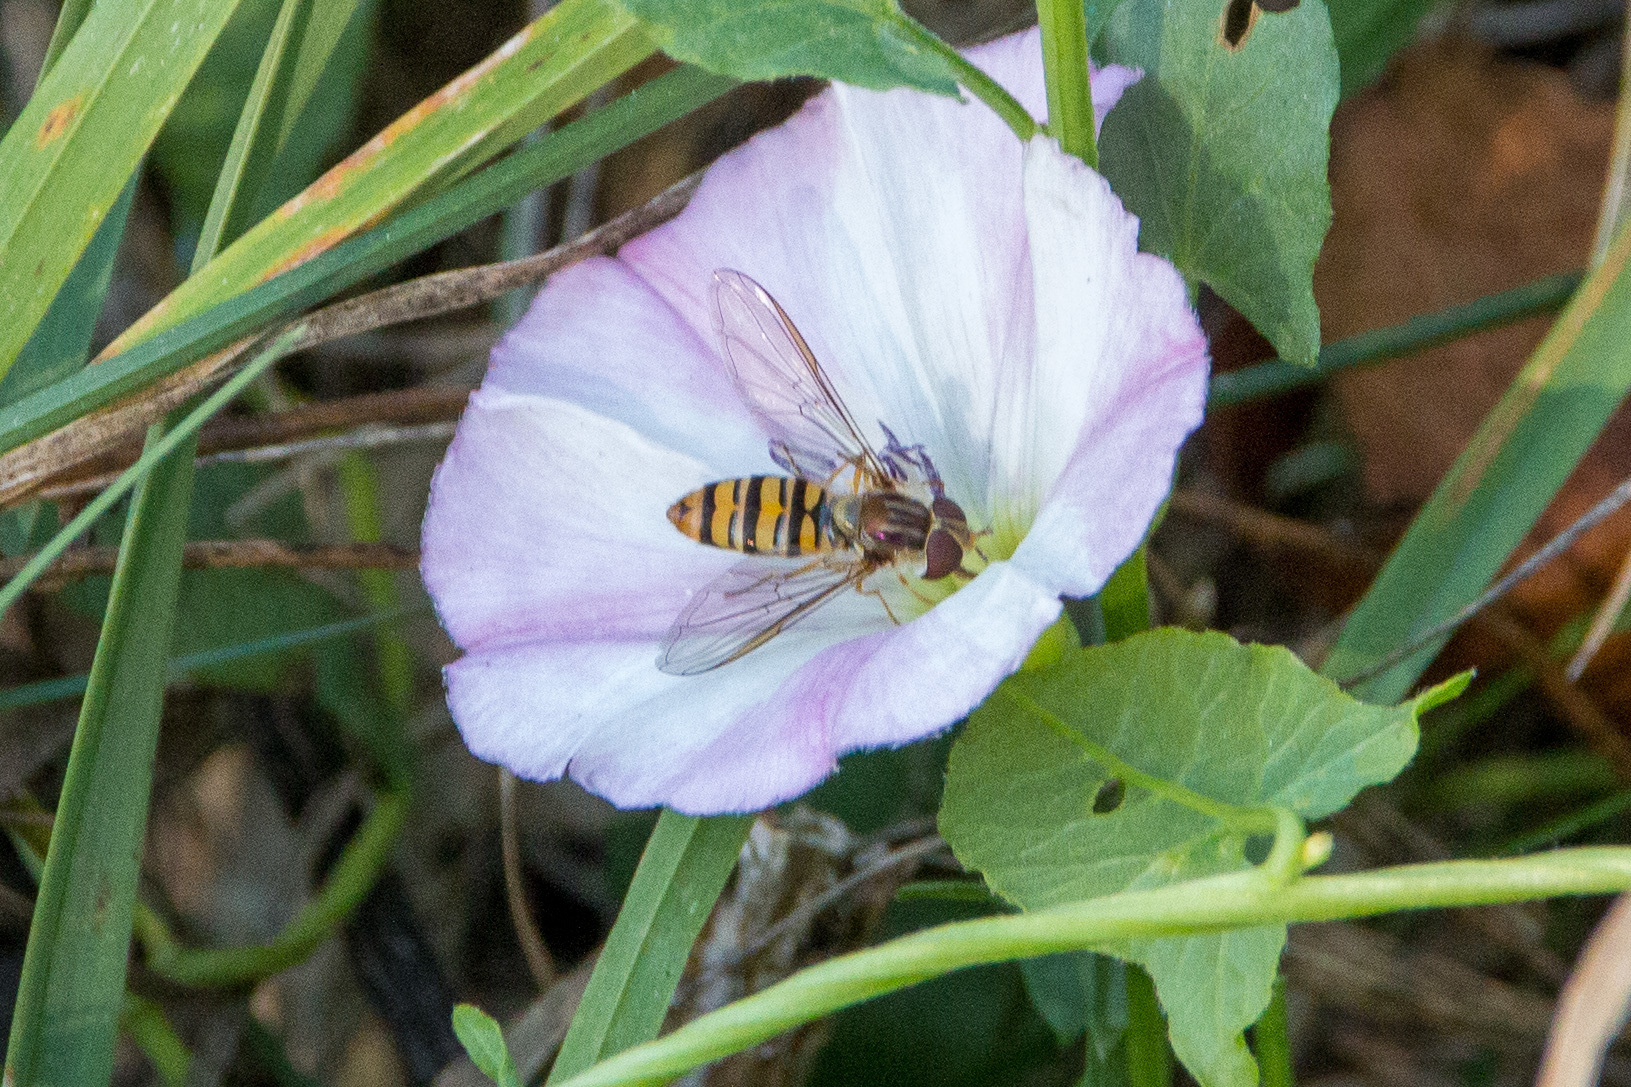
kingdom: Animalia
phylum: Arthropoda
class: Insecta
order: Diptera
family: Syrphidae
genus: Episyrphus
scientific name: Episyrphus balteatus
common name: Marmalade hoverfly
